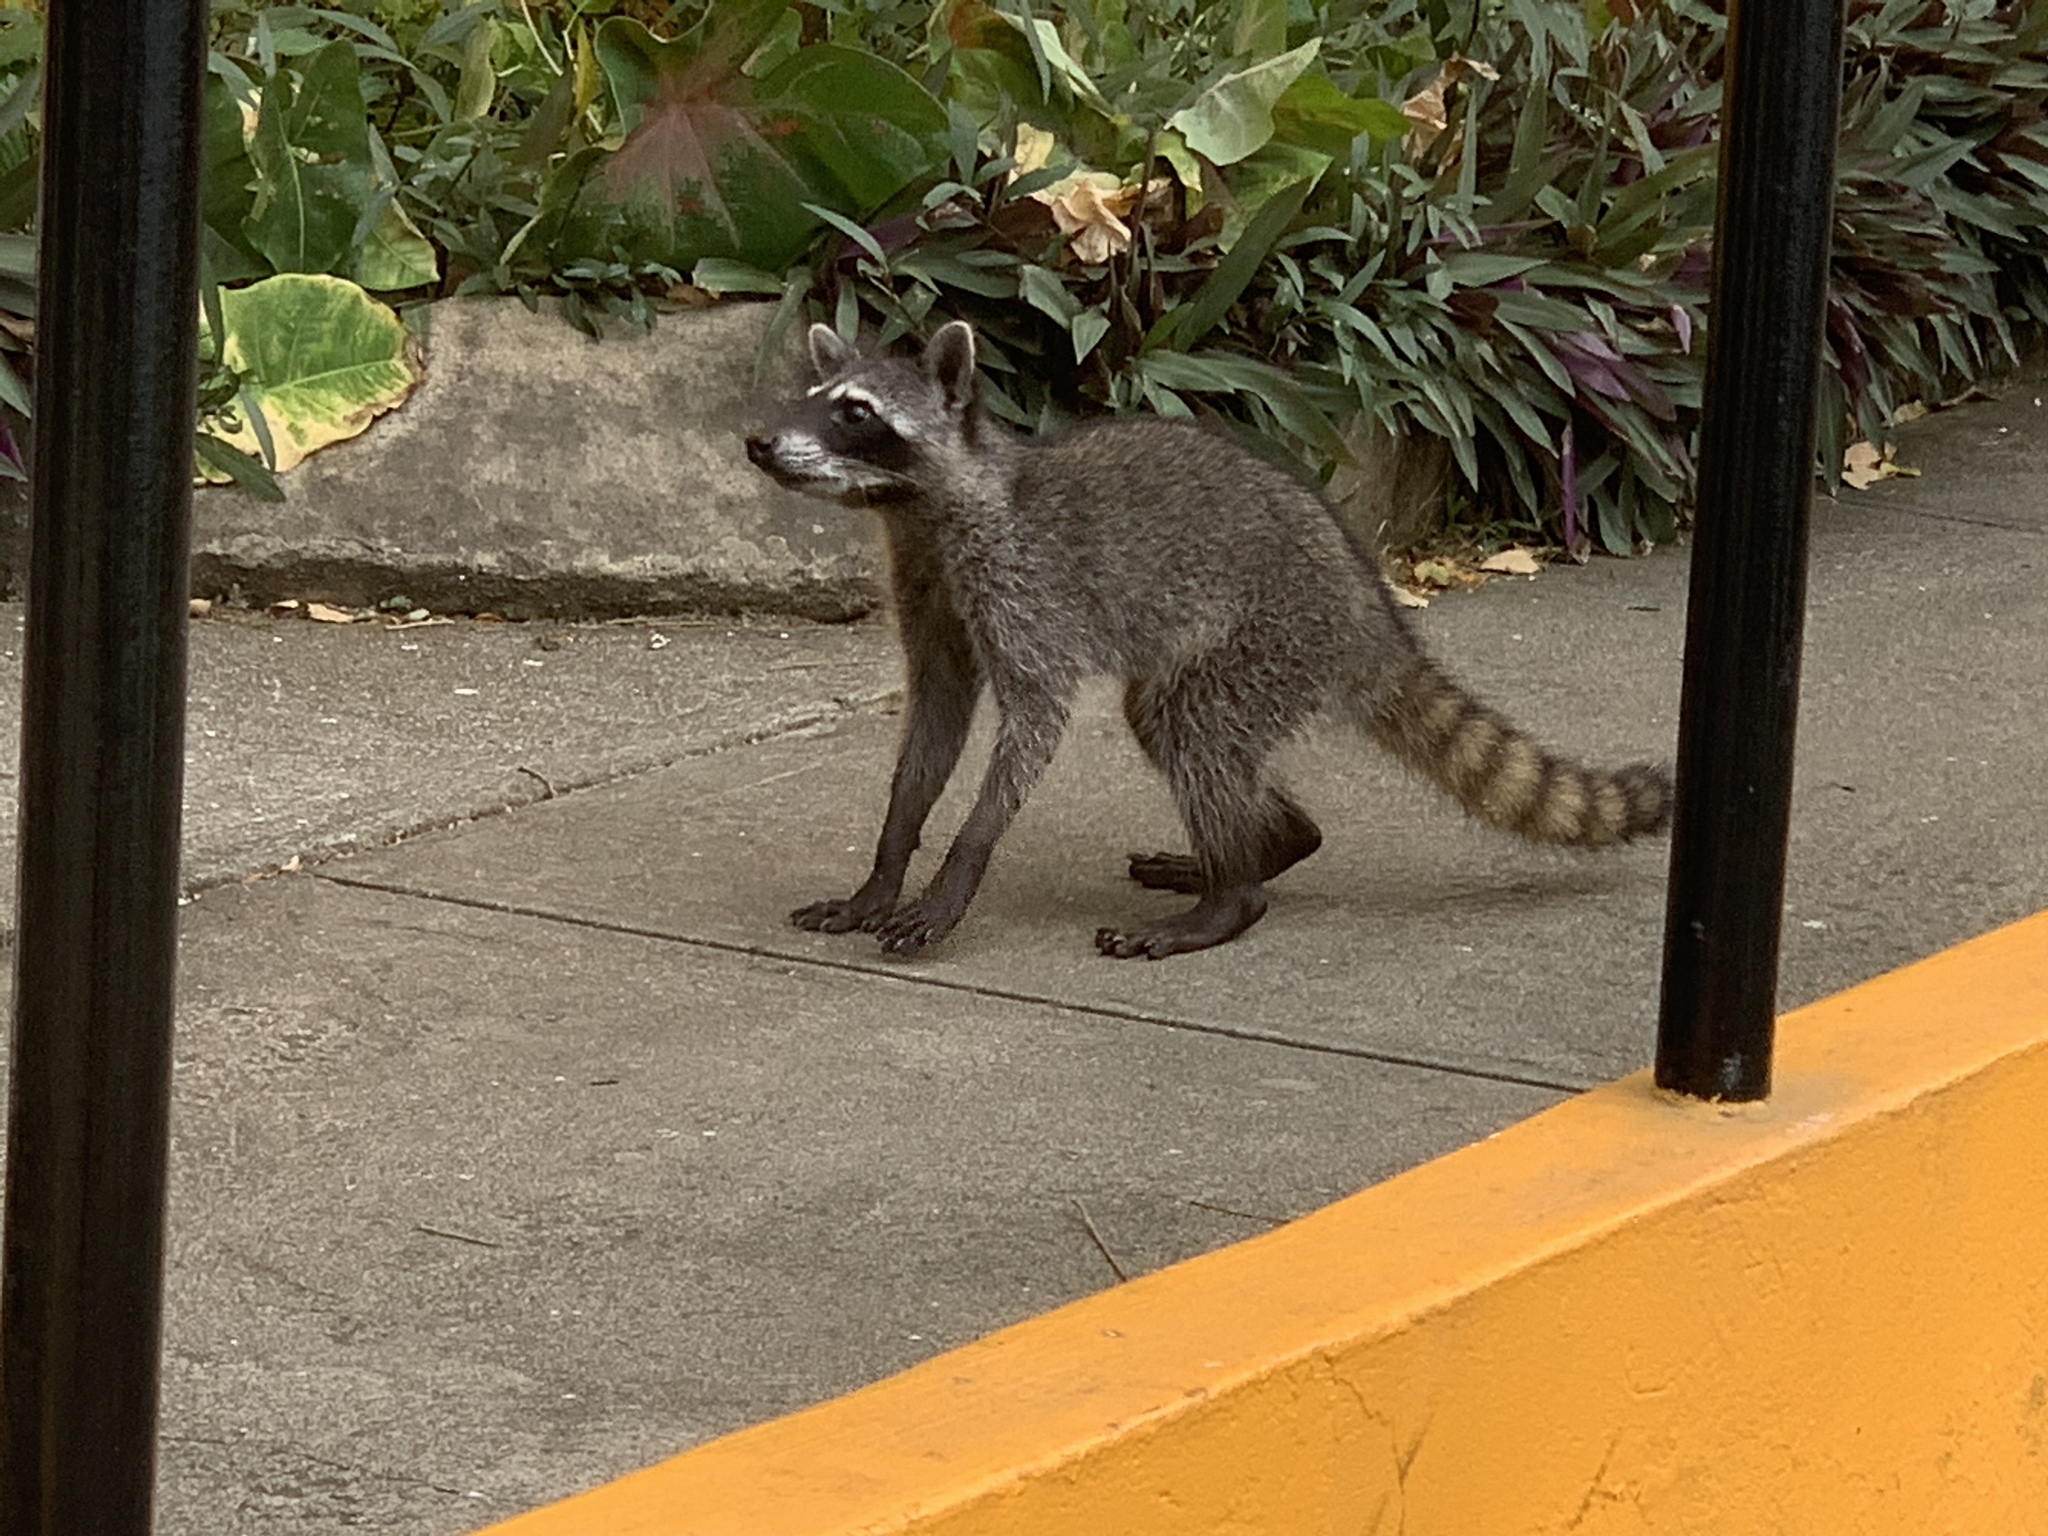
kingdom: Animalia
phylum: Chordata
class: Mammalia
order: Carnivora
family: Procyonidae
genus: Procyon
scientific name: Procyon lotor
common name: Raccoon
